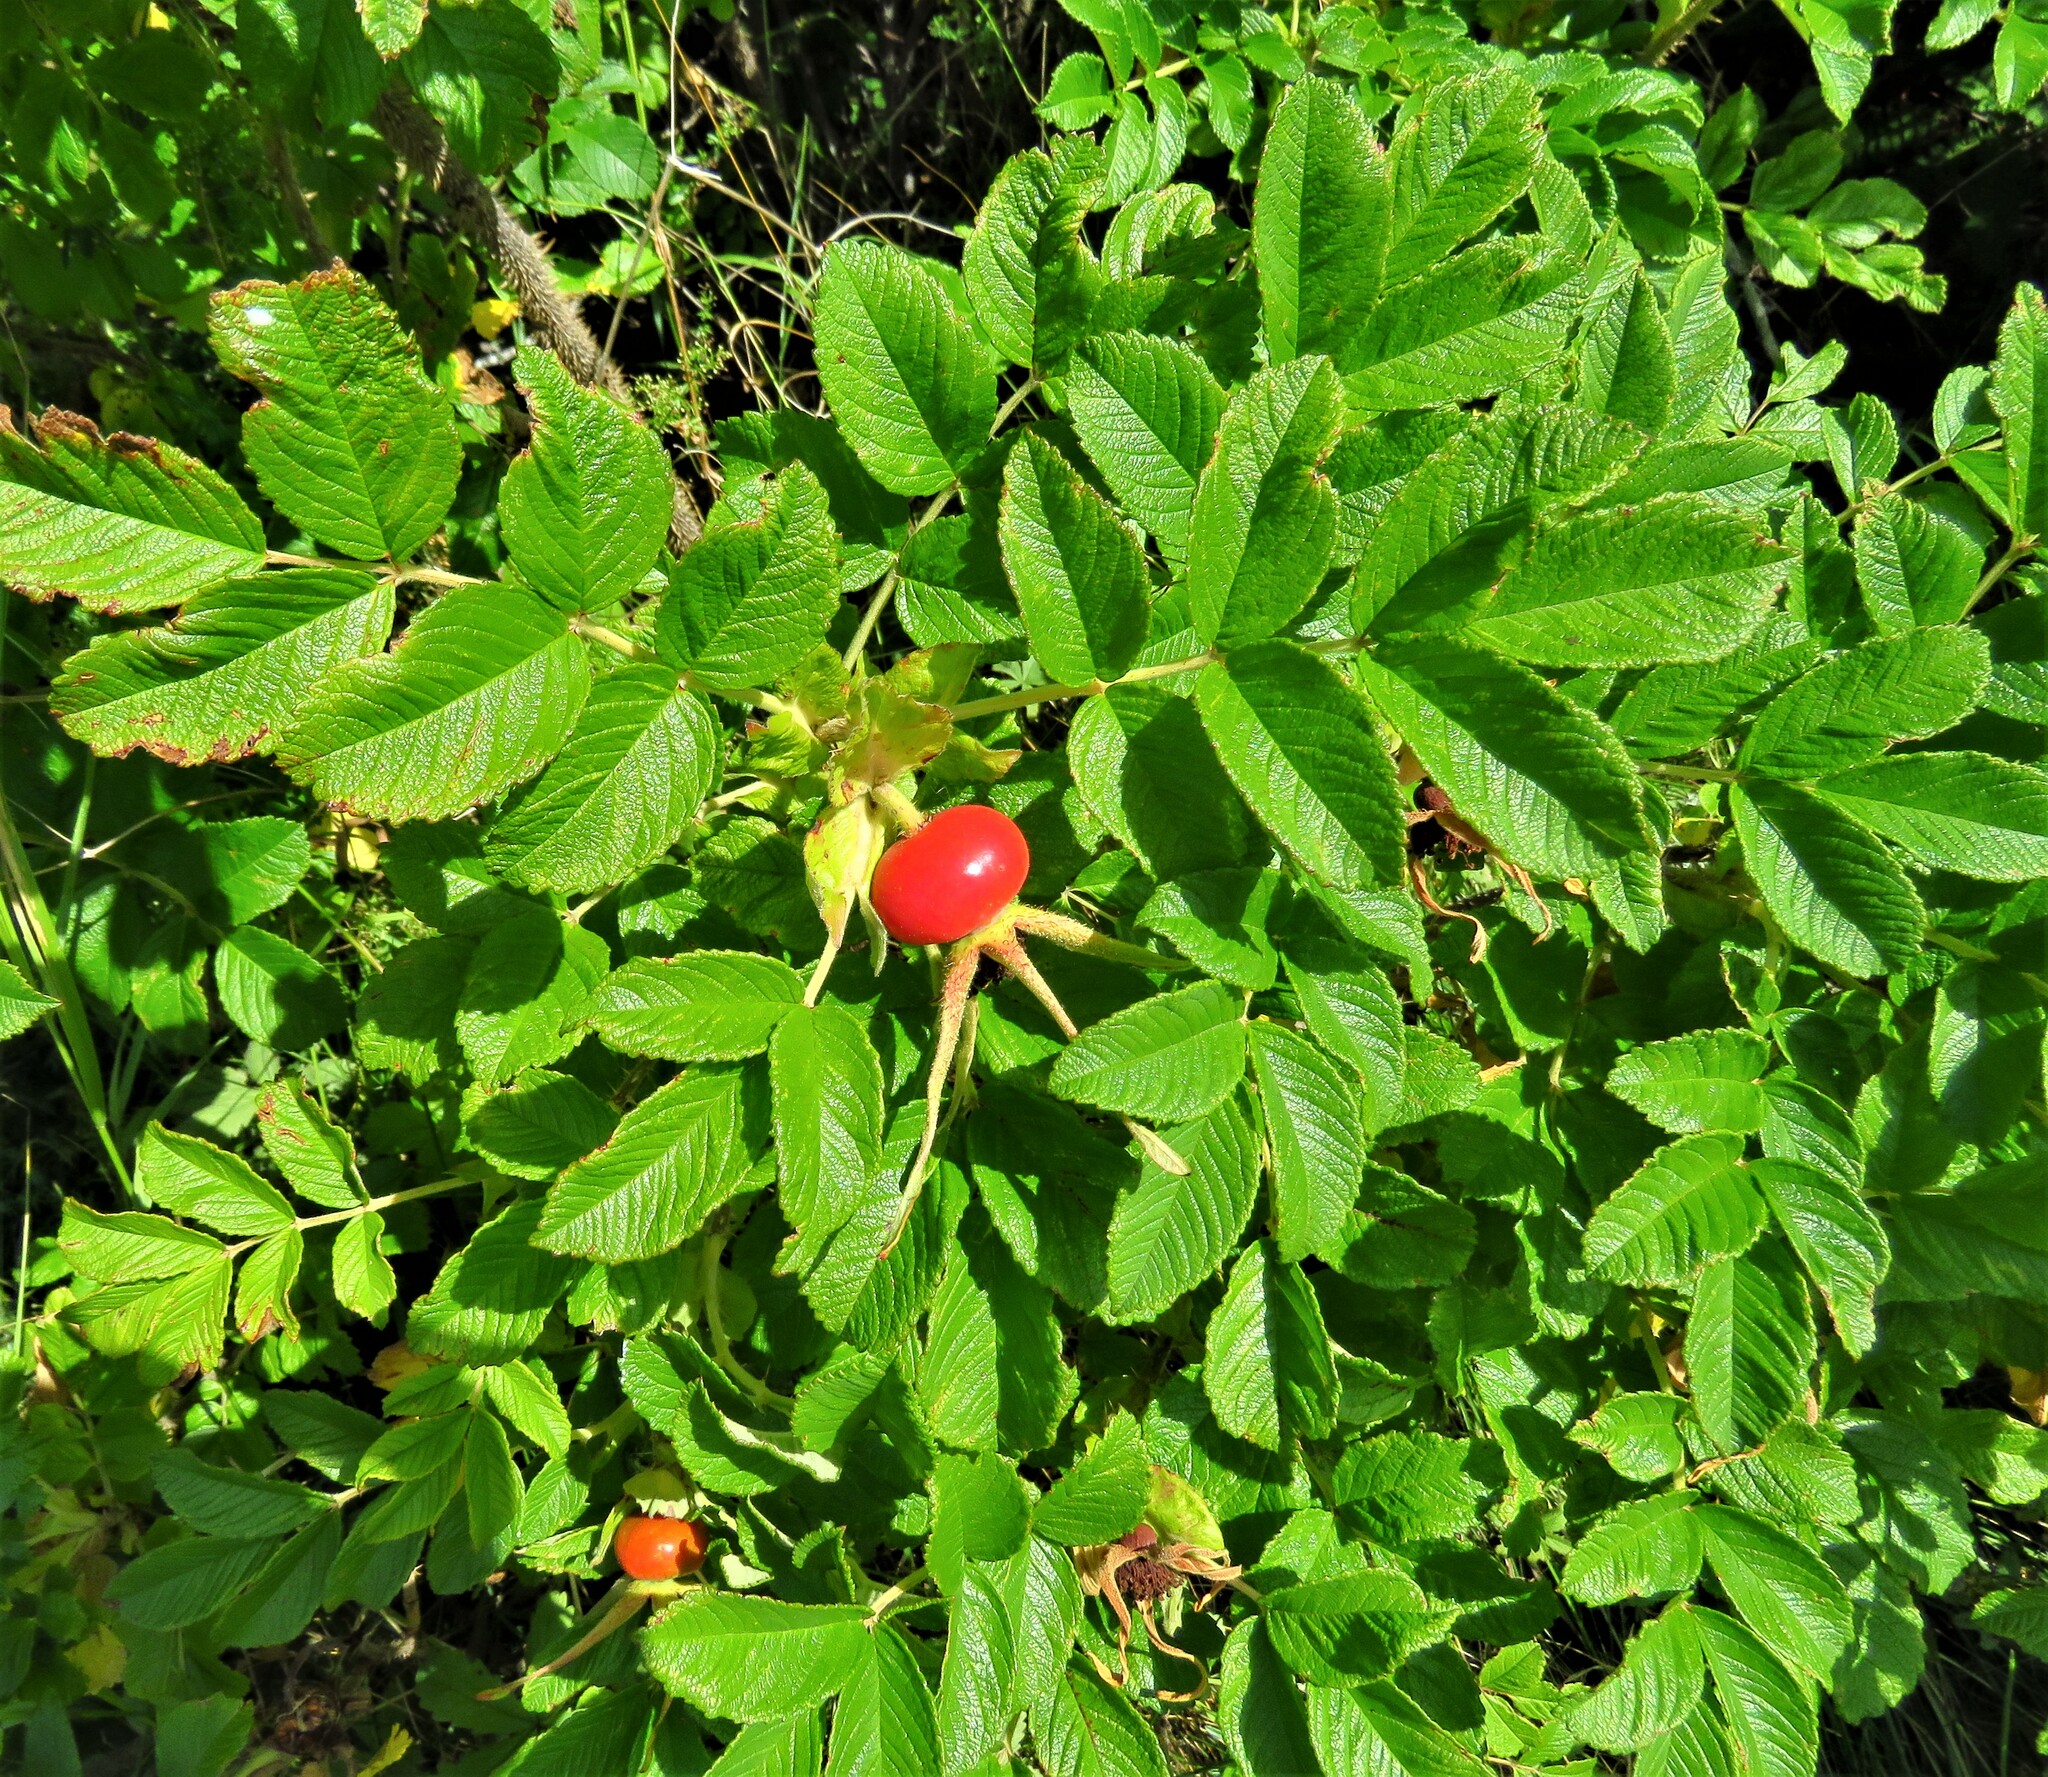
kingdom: Plantae
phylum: Tracheophyta
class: Magnoliopsida
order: Rosales
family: Rosaceae
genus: Rosa
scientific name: Rosa rugosa
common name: Japanese rose
